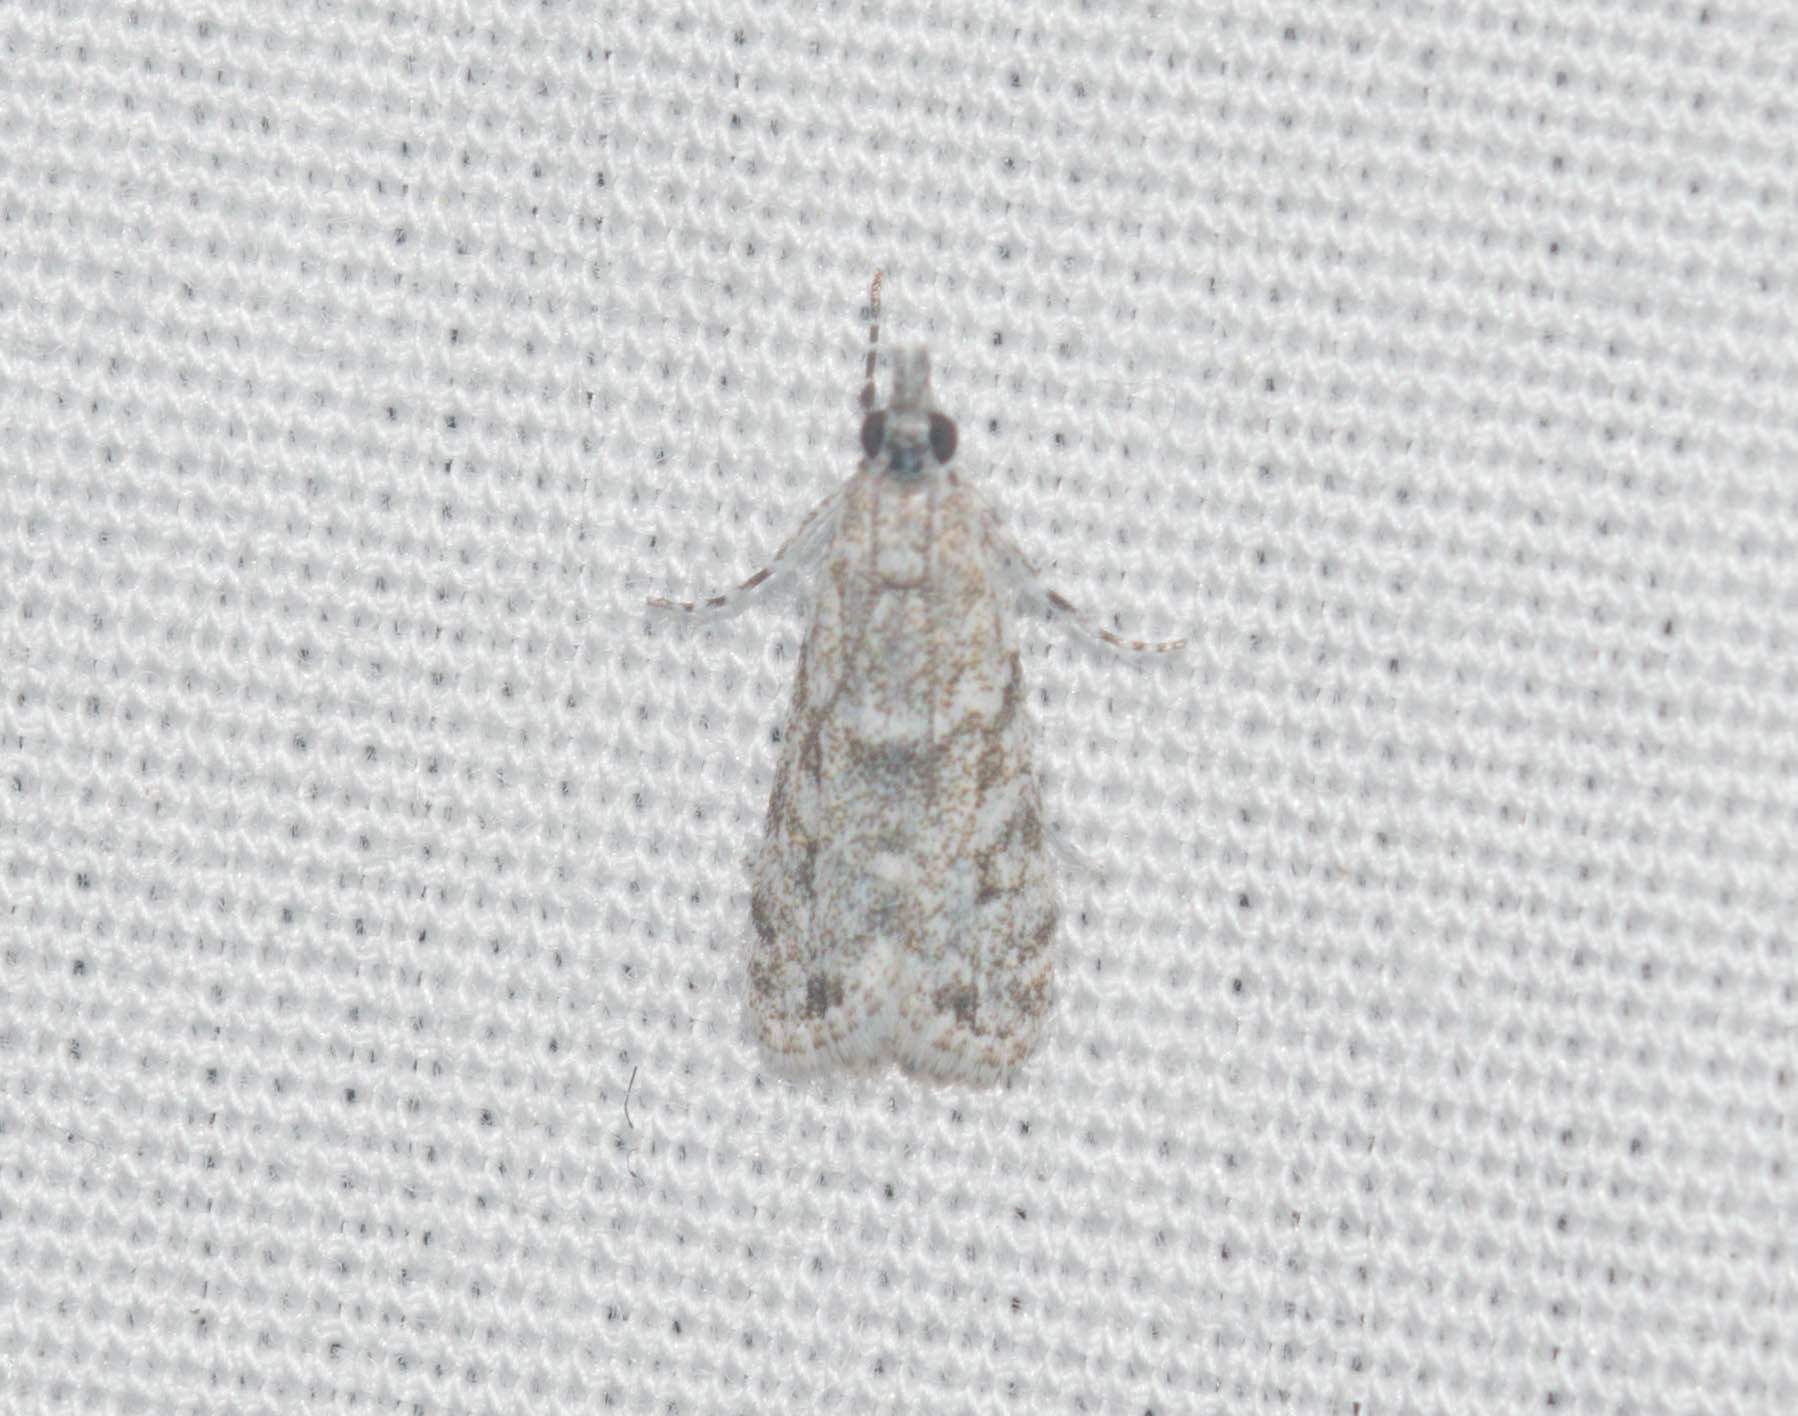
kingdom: Animalia
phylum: Arthropoda
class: Insecta
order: Lepidoptera
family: Crambidae
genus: Eudonia
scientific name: Eudonia geraea
